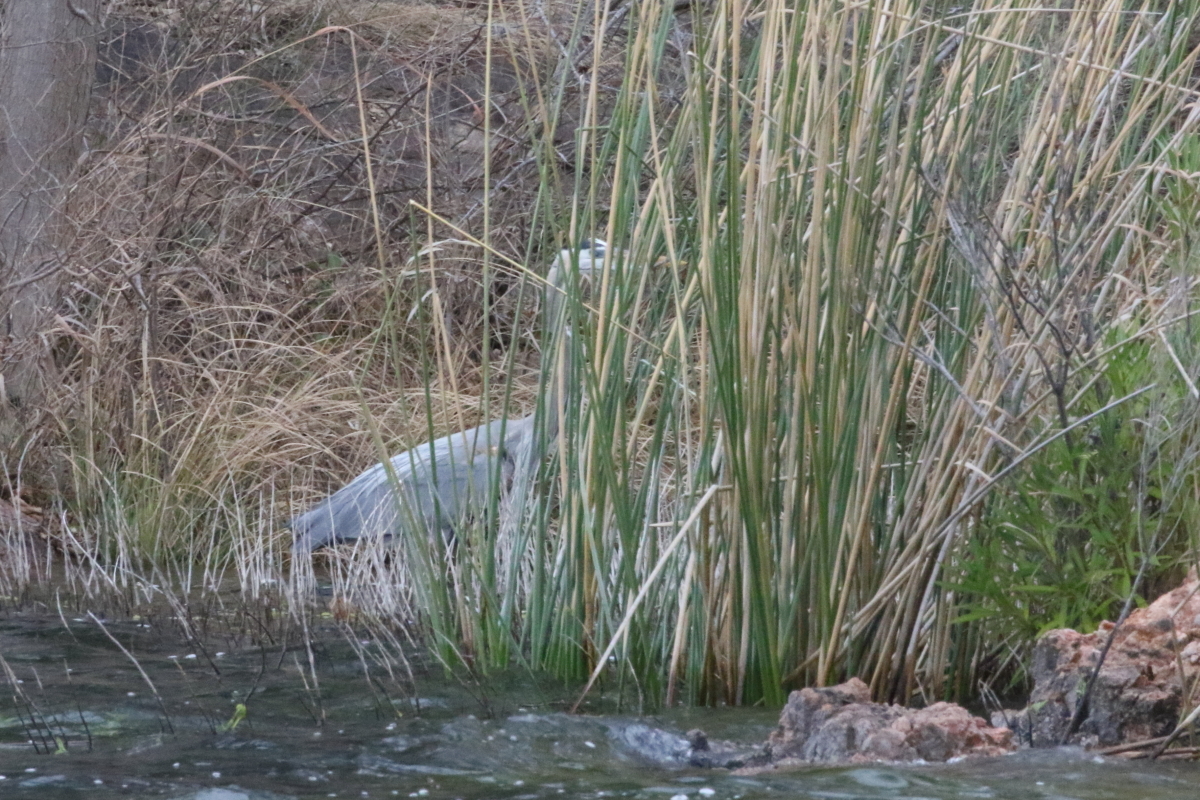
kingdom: Animalia
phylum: Chordata
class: Aves
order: Pelecaniformes
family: Ardeidae
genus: Ardea
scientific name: Ardea herodias
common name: Great blue heron
